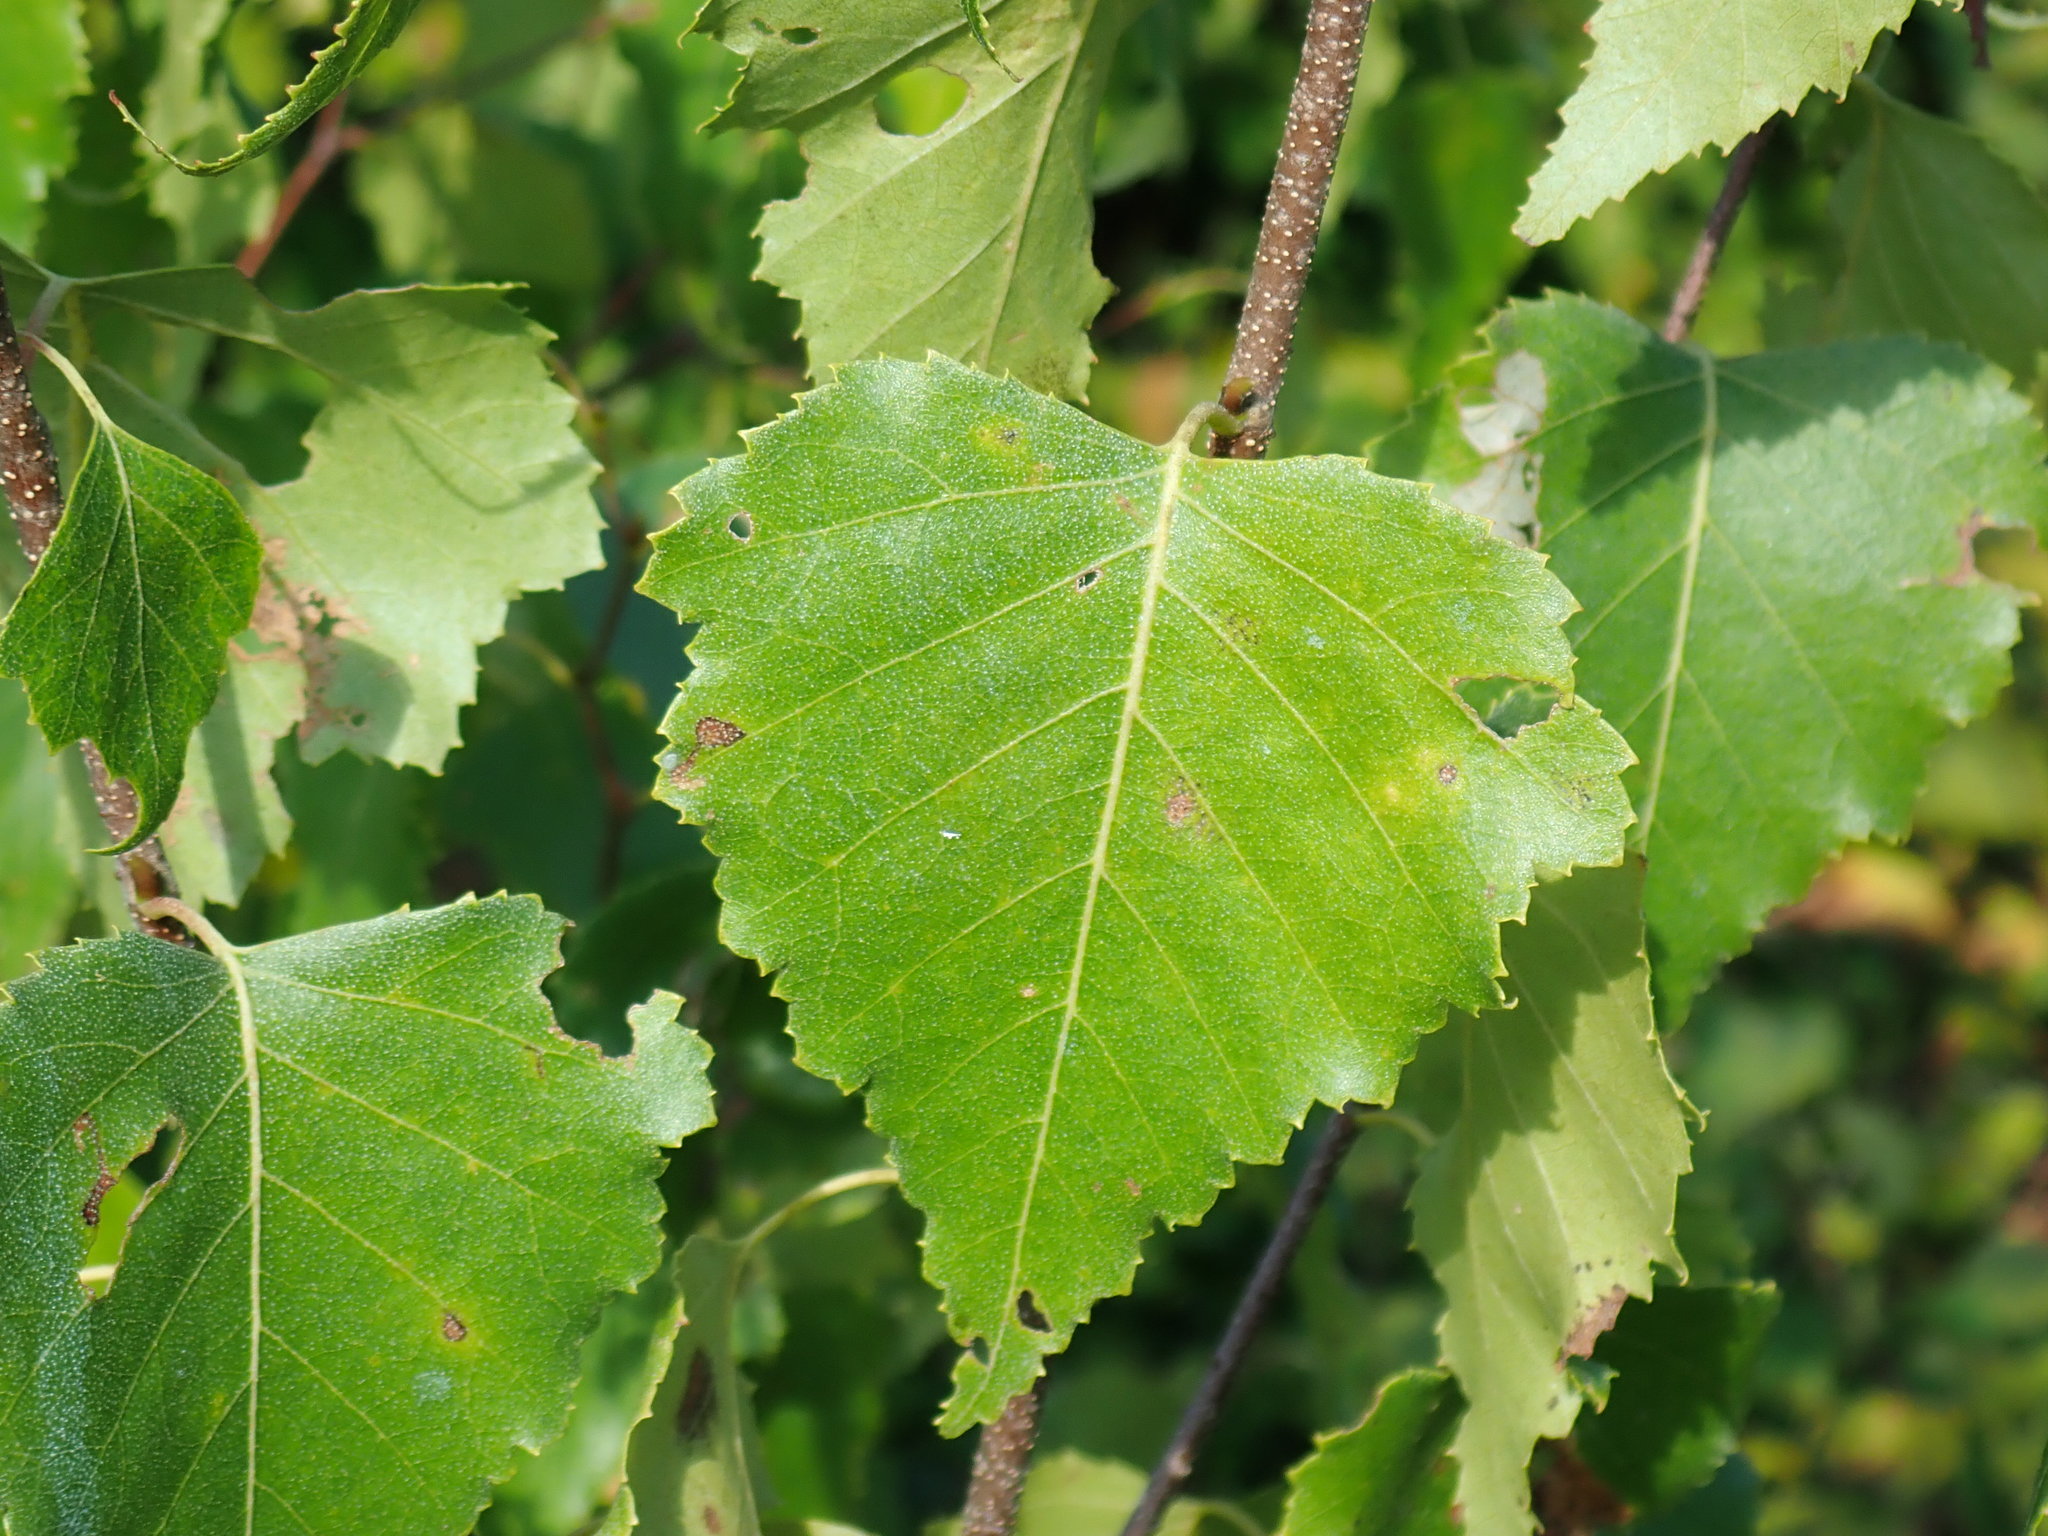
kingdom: Plantae
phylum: Tracheophyta
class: Magnoliopsida
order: Fagales
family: Betulaceae
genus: Betula
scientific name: Betula populifolia
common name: Fire birch
